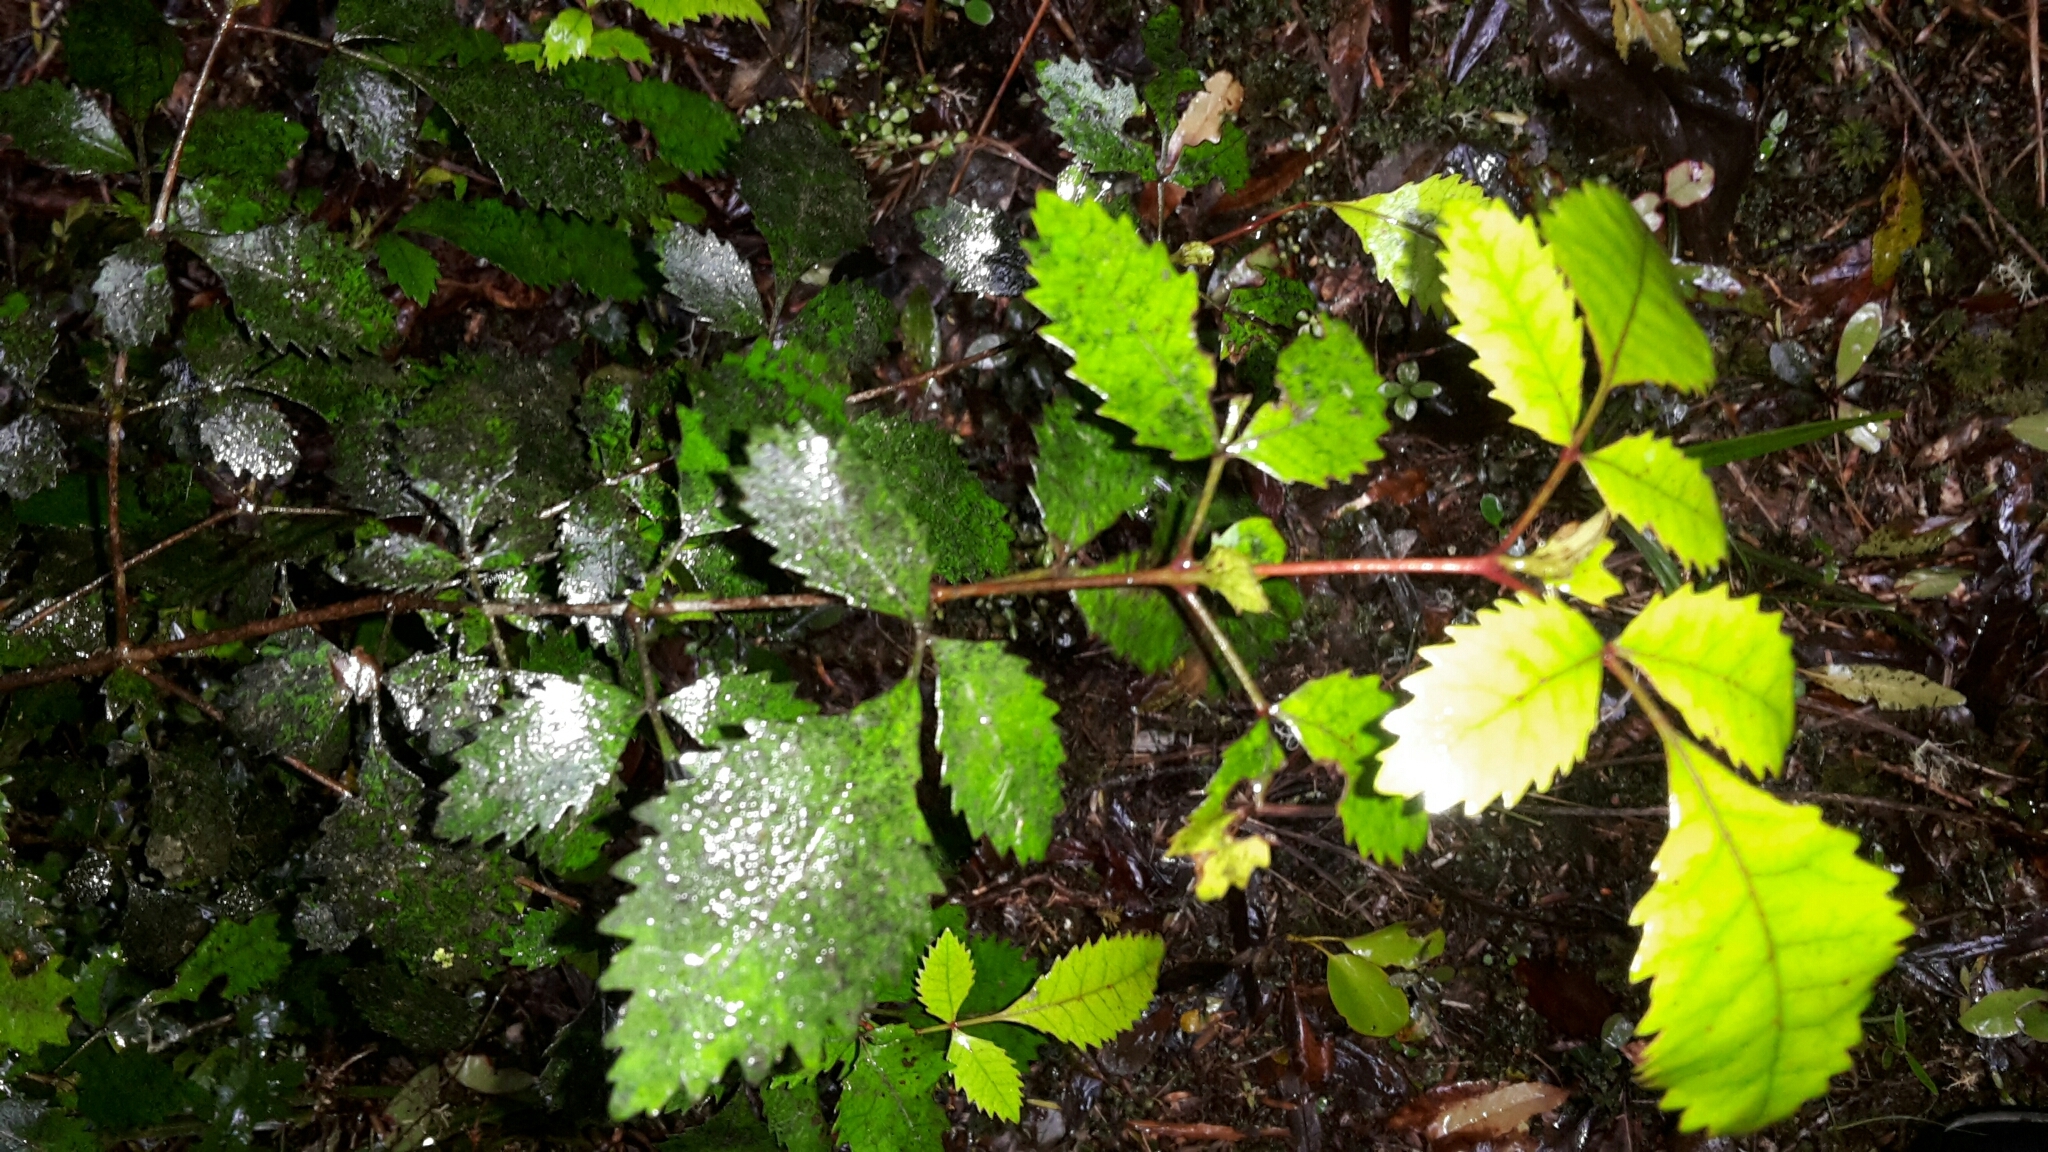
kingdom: Plantae
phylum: Tracheophyta
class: Magnoliopsida
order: Oxalidales
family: Cunoniaceae
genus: Pterophylla
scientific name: Pterophylla racemosa
